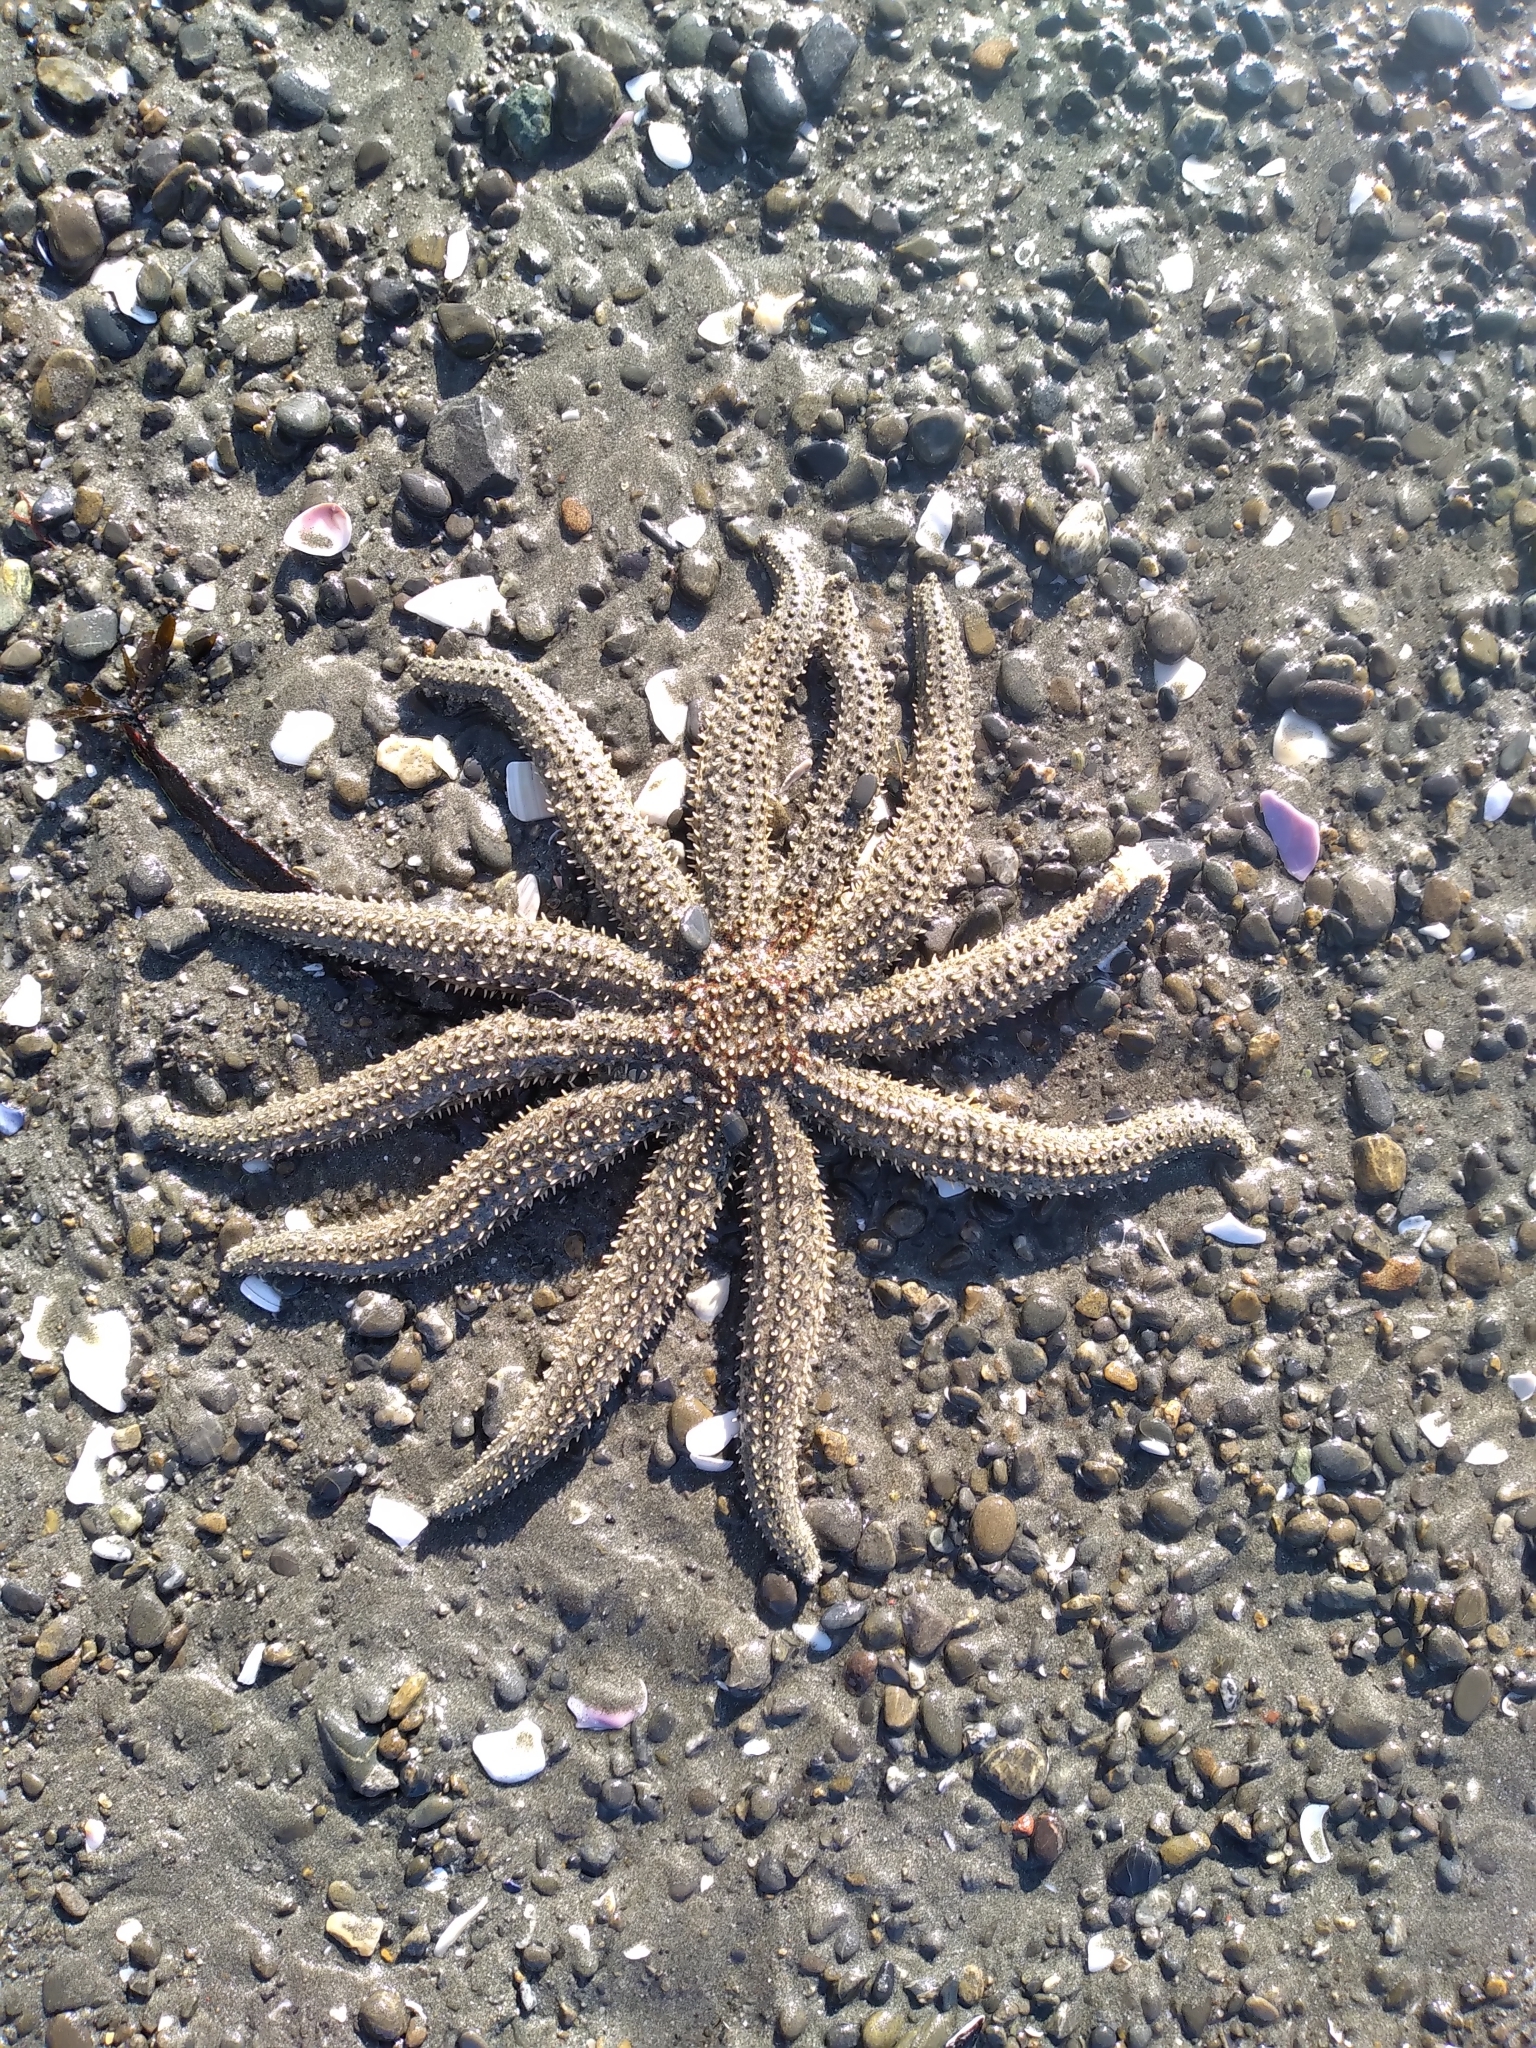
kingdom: Animalia
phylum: Echinodermata
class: Asteroidea
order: Forcipulatida
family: Asteriidae
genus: Coscinasterias
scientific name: Coscinasterias muricata
